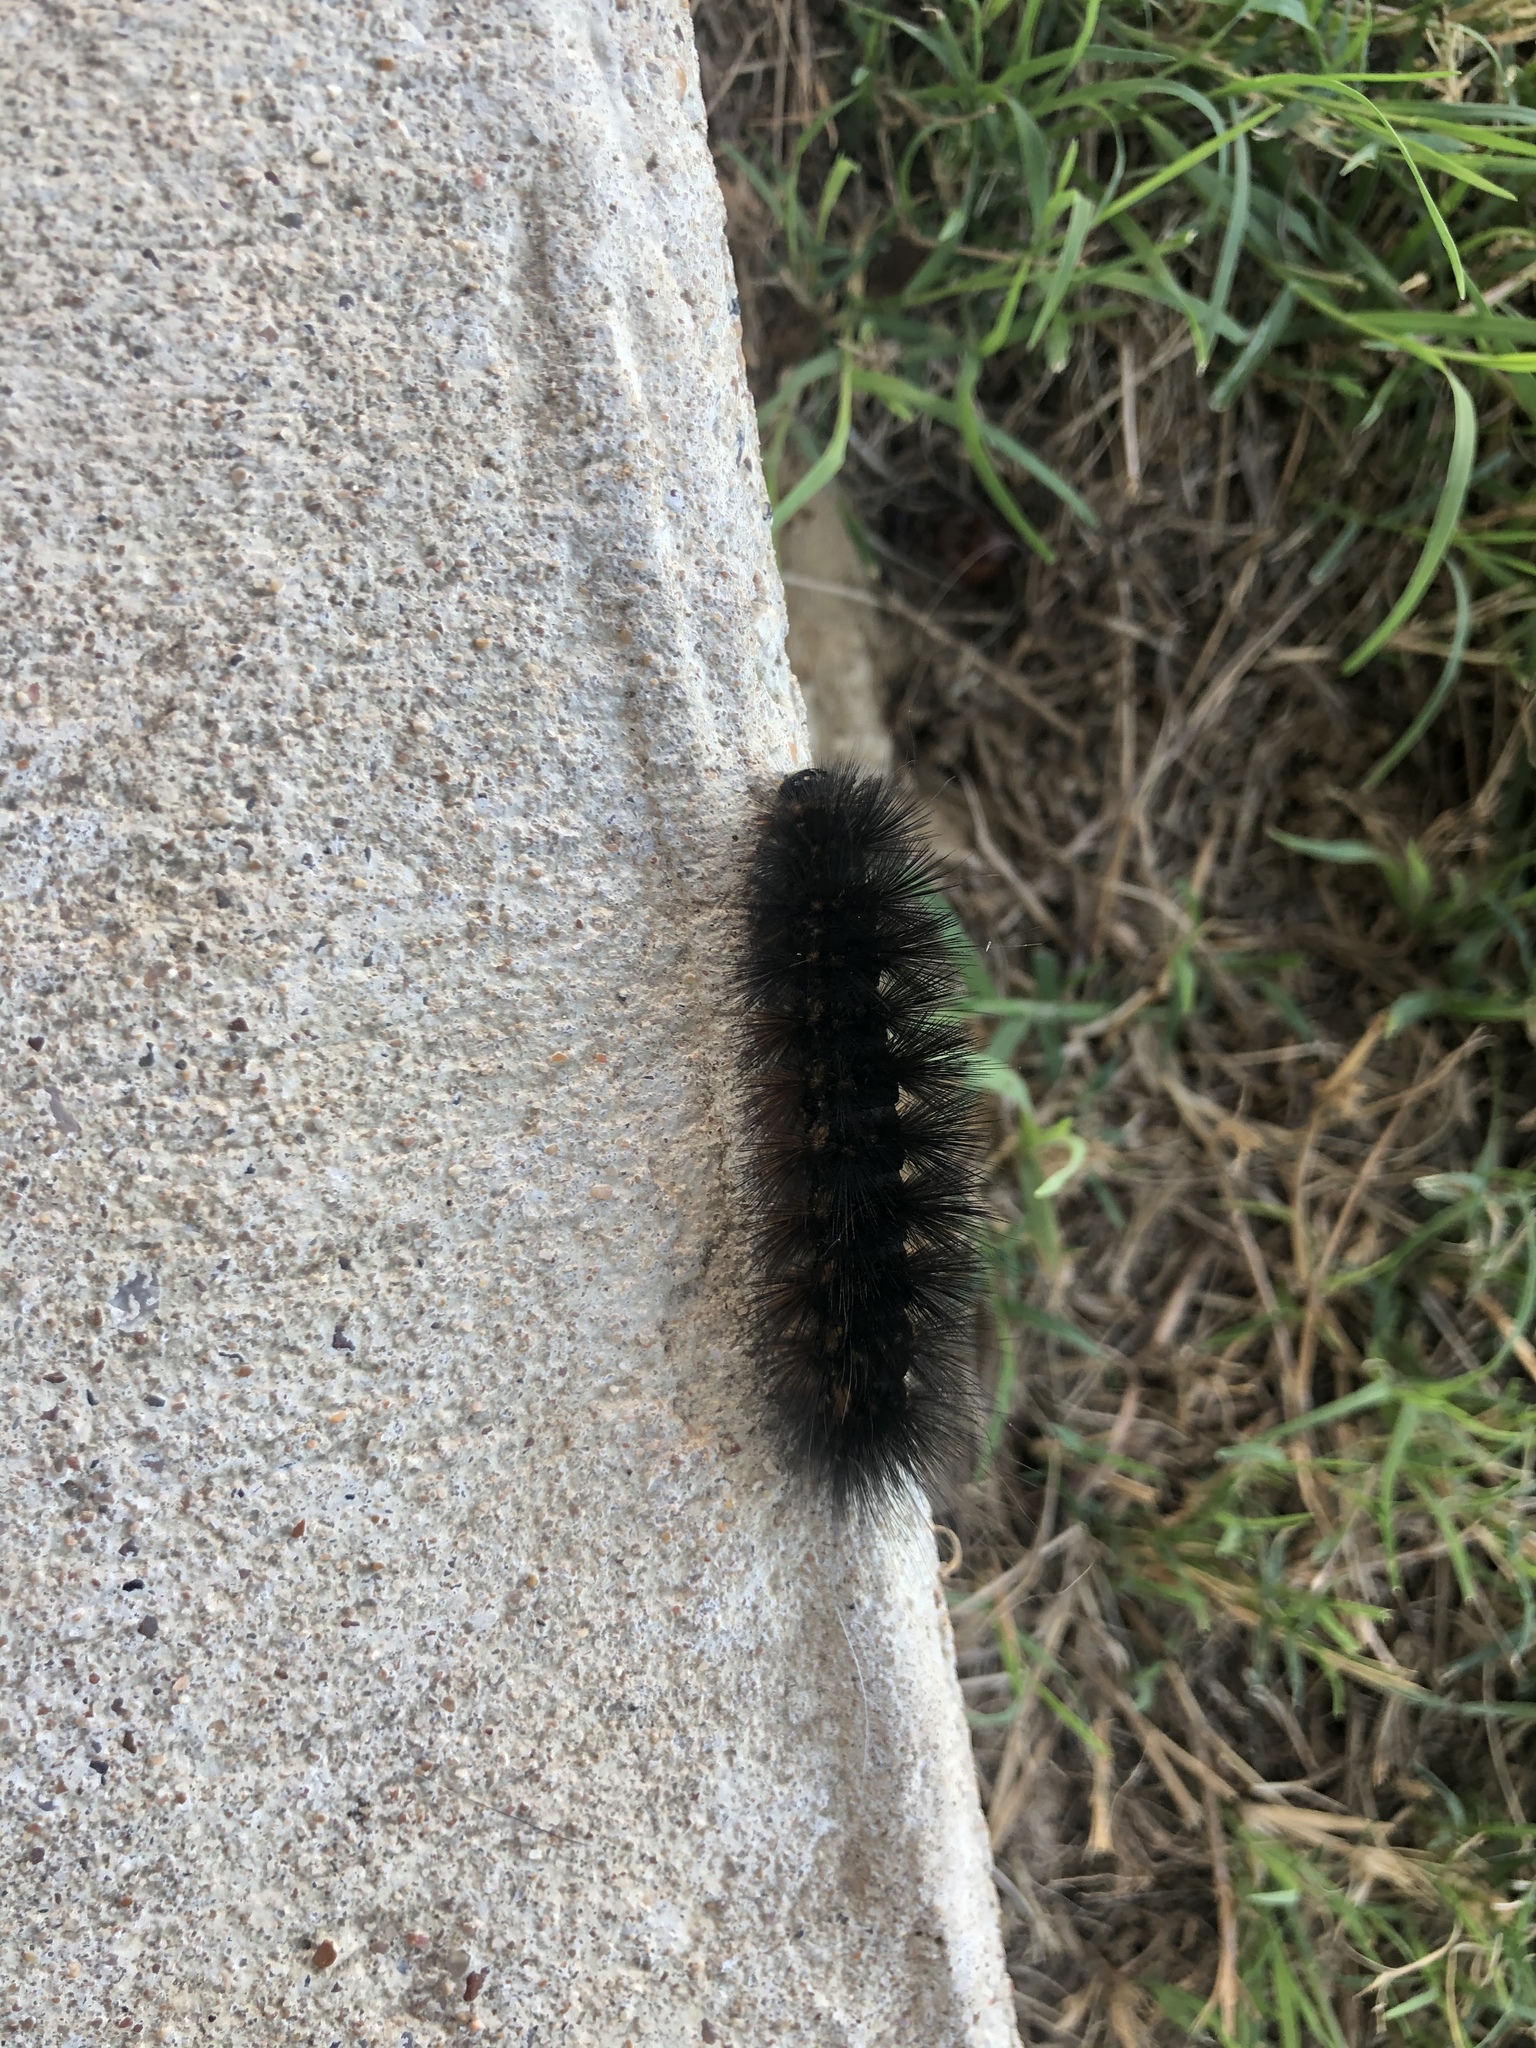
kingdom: Animalia
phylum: Arthropoda
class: Insecta
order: Lepidoptera
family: Erebidae
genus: Estigmene
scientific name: Estigmene acrea
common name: Salt marsh moth
